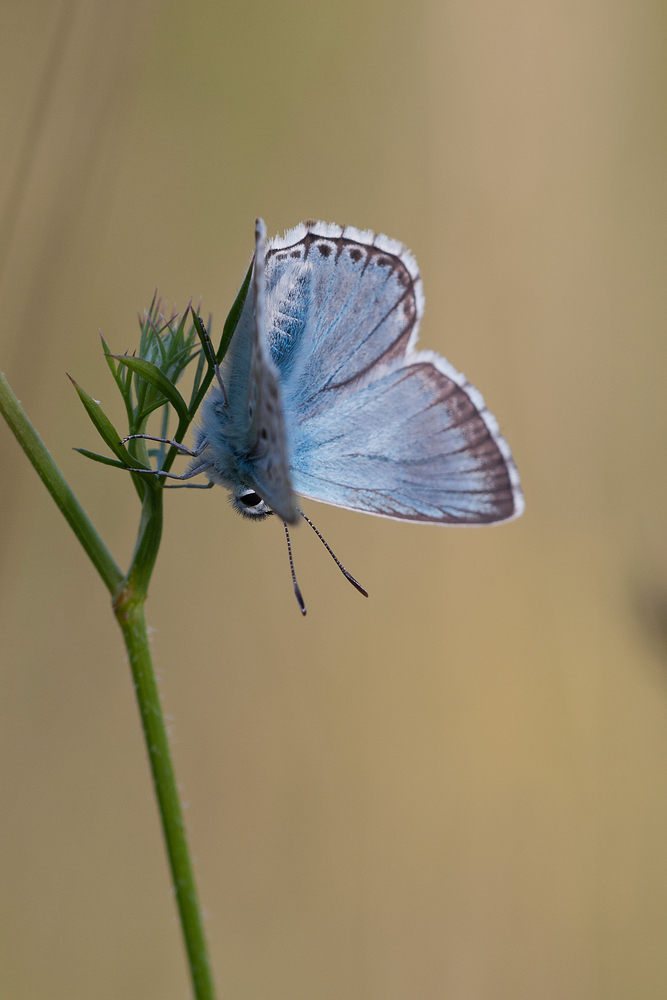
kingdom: Animalia
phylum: Arthropoda
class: Insecta
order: Lepidoptera
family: Lycaenidae
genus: Lysandra
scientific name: Lysandra coridon
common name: Chalkhill blue
